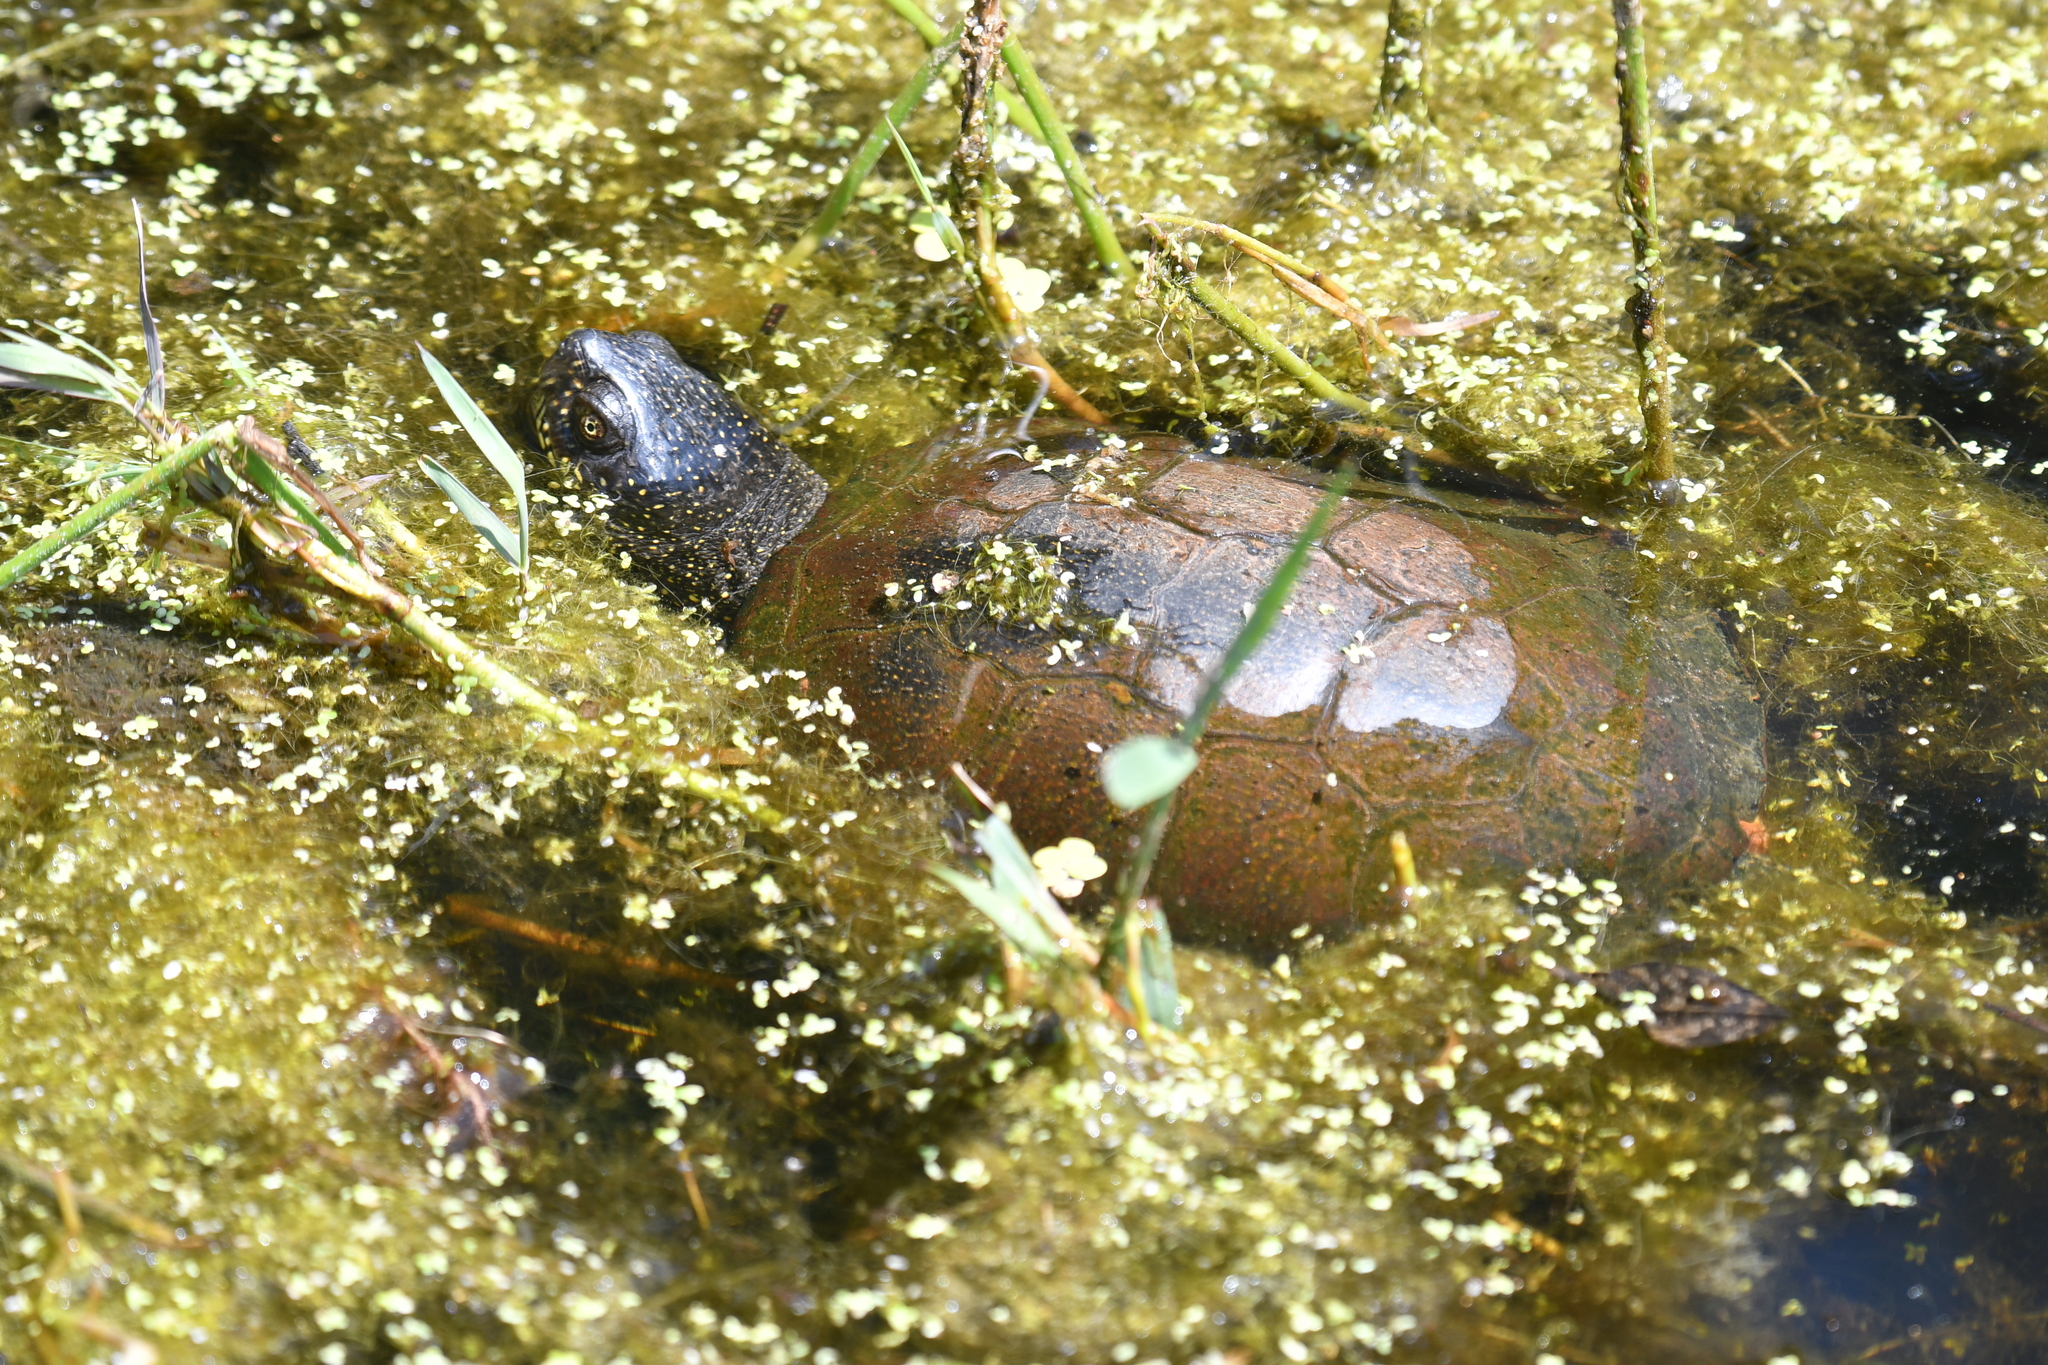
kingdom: Animalia
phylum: Chordata
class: Testudines
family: Emydidae
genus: Emys
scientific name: Emys orbicularis
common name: European pond turtle
